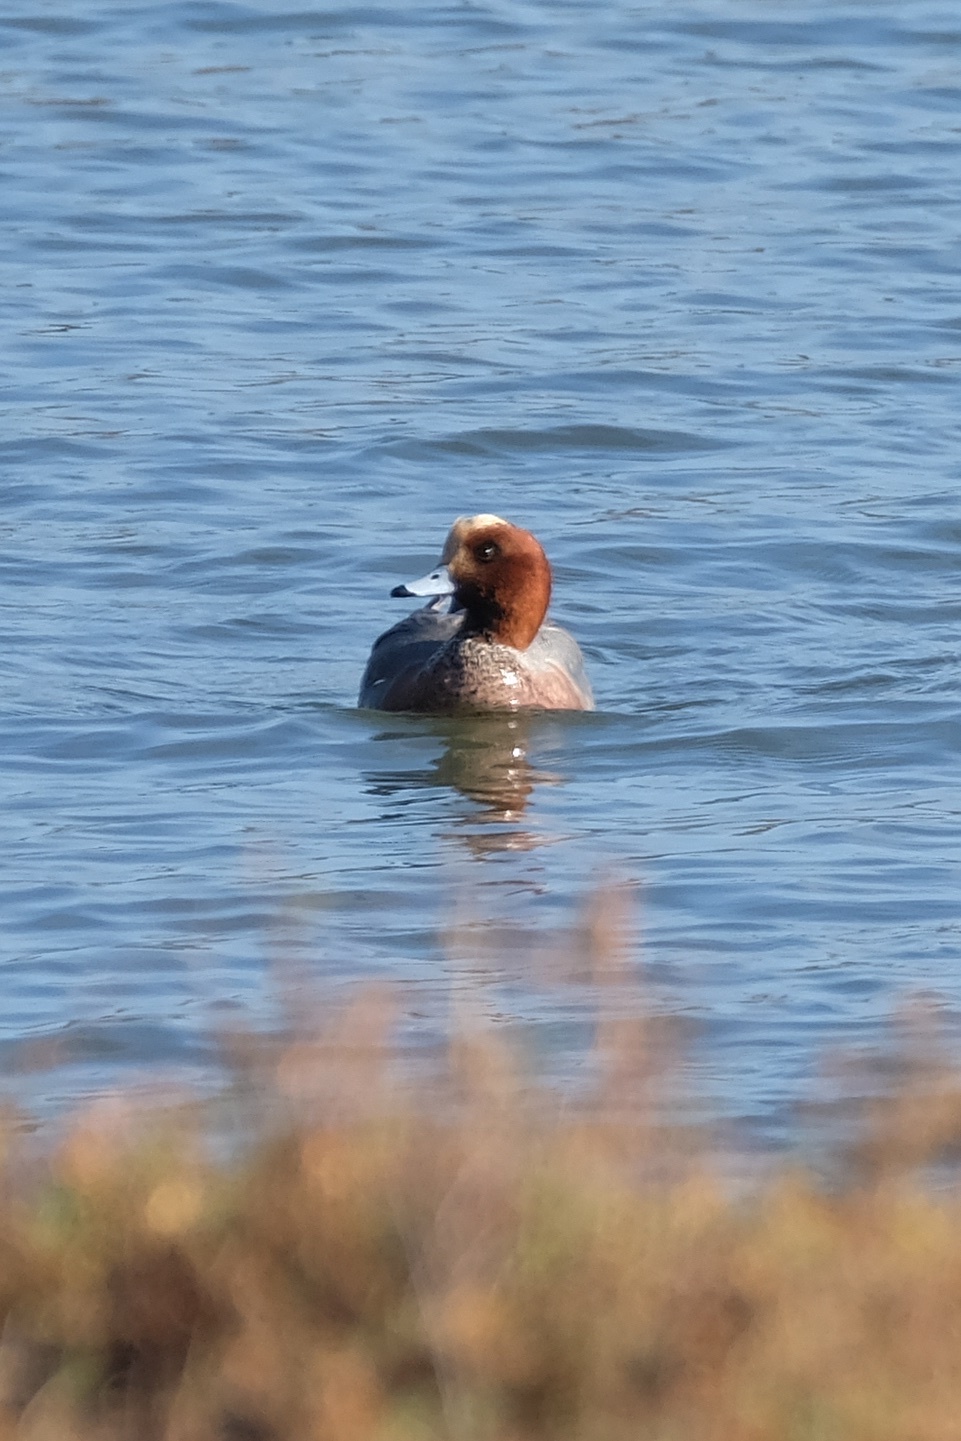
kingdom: Animalia
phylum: Chordata
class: Aves
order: Anseriformes
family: Anatidae
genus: Mareca
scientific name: Mareca penelope
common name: Eurasian wigeon
